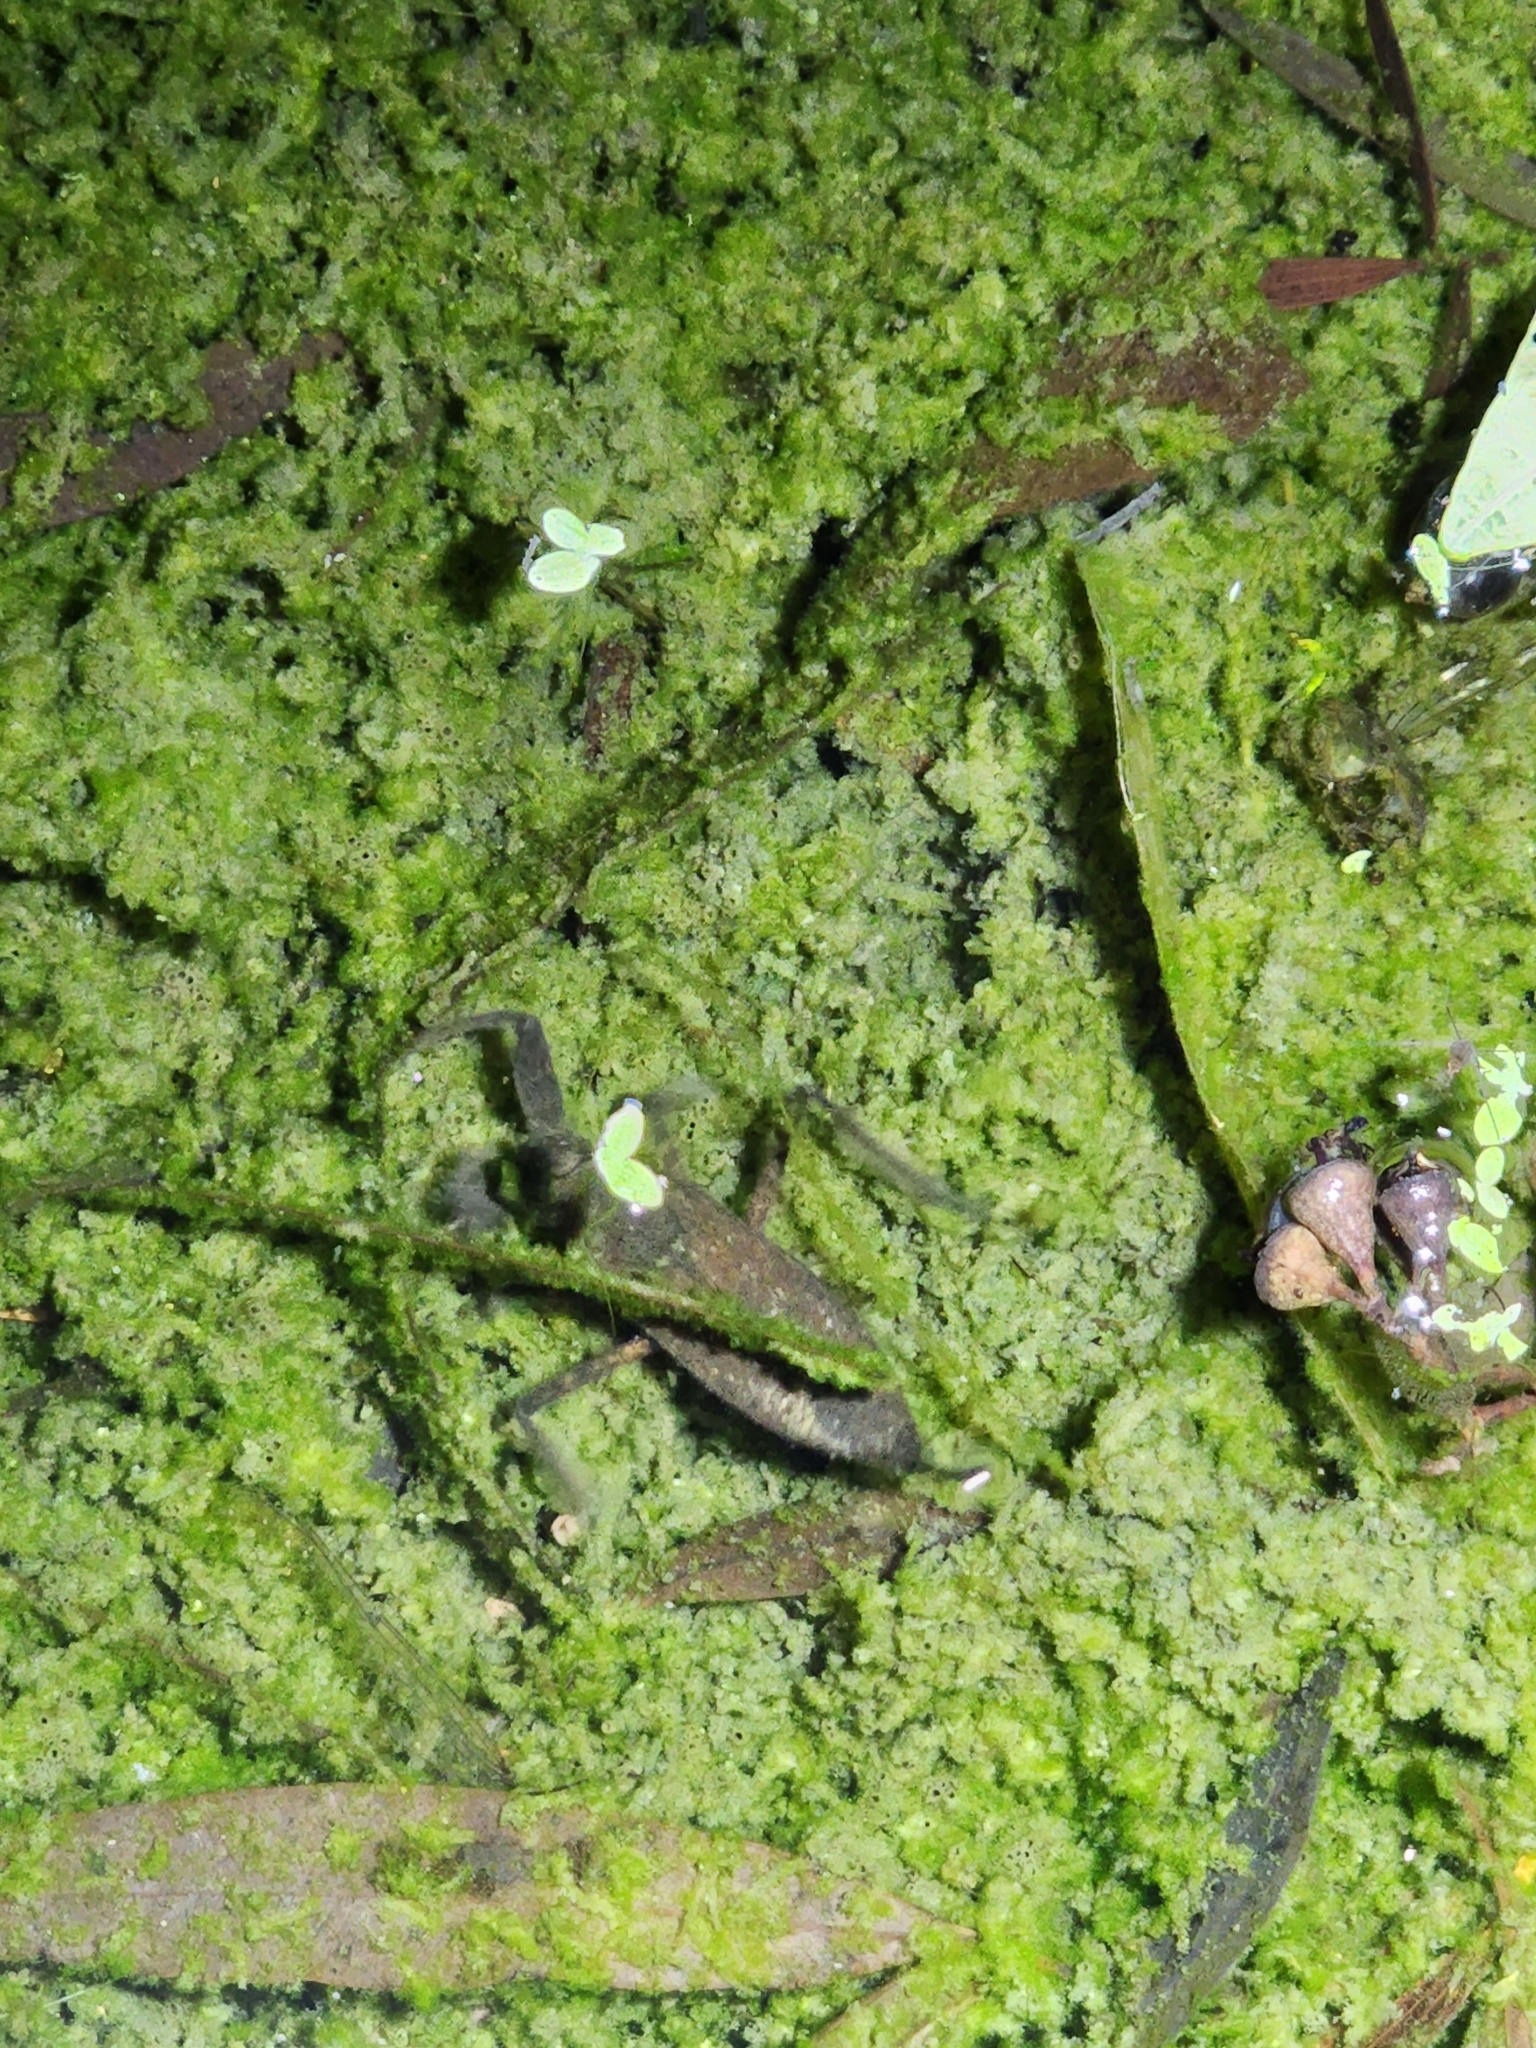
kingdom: Animalia
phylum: Arthropoda
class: Insecta
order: Hemiptera
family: Nepidae
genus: Laccotrephes
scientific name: Laccotrephes tristis
